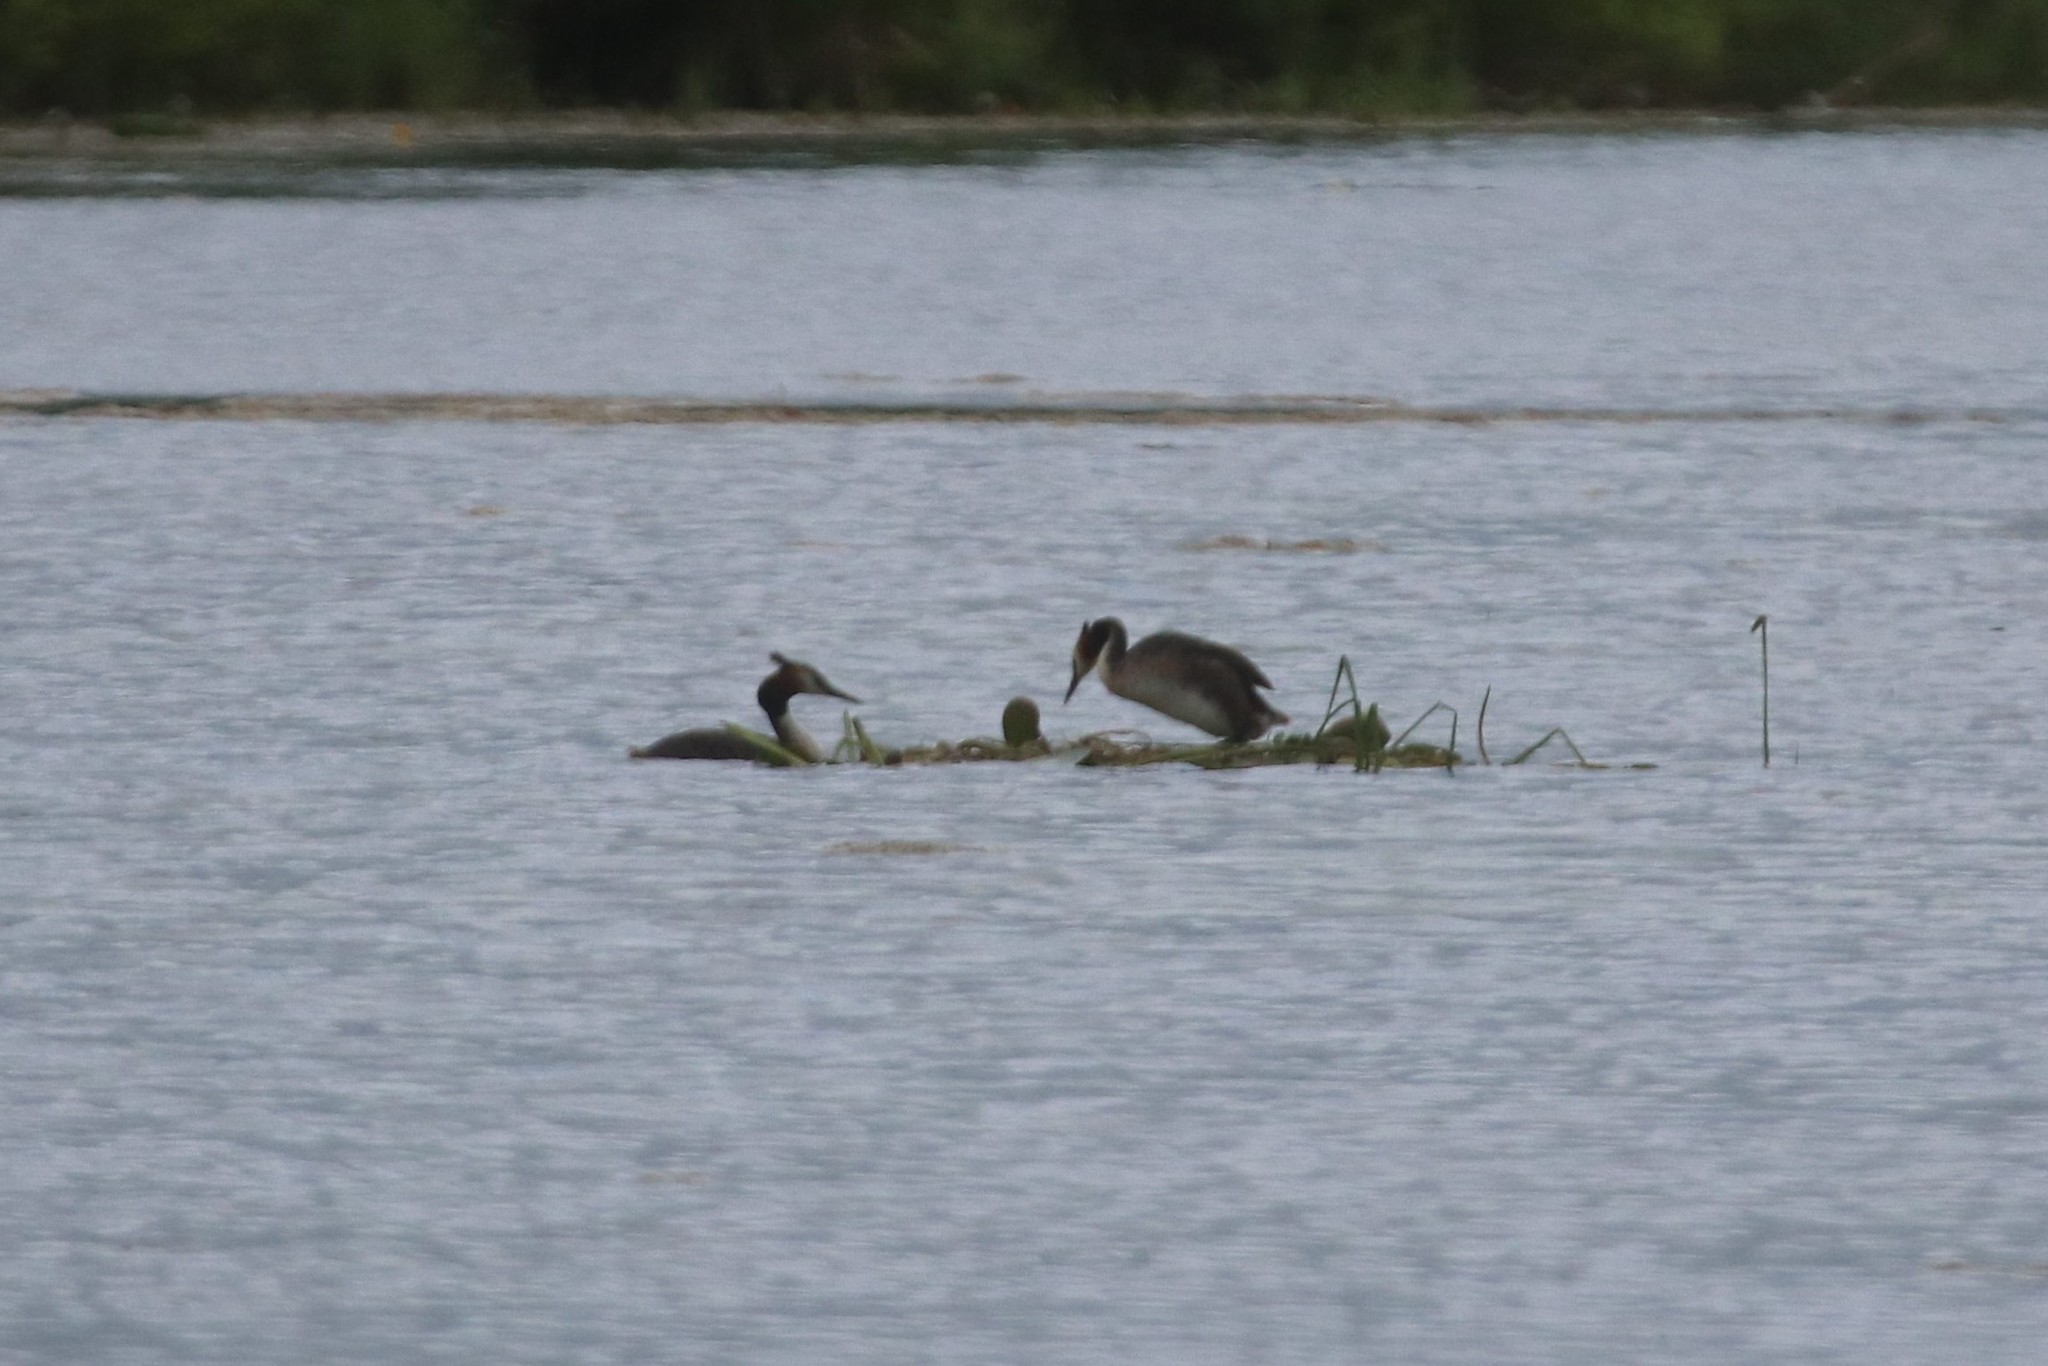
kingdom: Animalia
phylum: Chordata
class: Aves
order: Podicipediformes
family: Podicipedidae
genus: Podiceps
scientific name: Podiceps cristatus
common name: Great crested grebe
